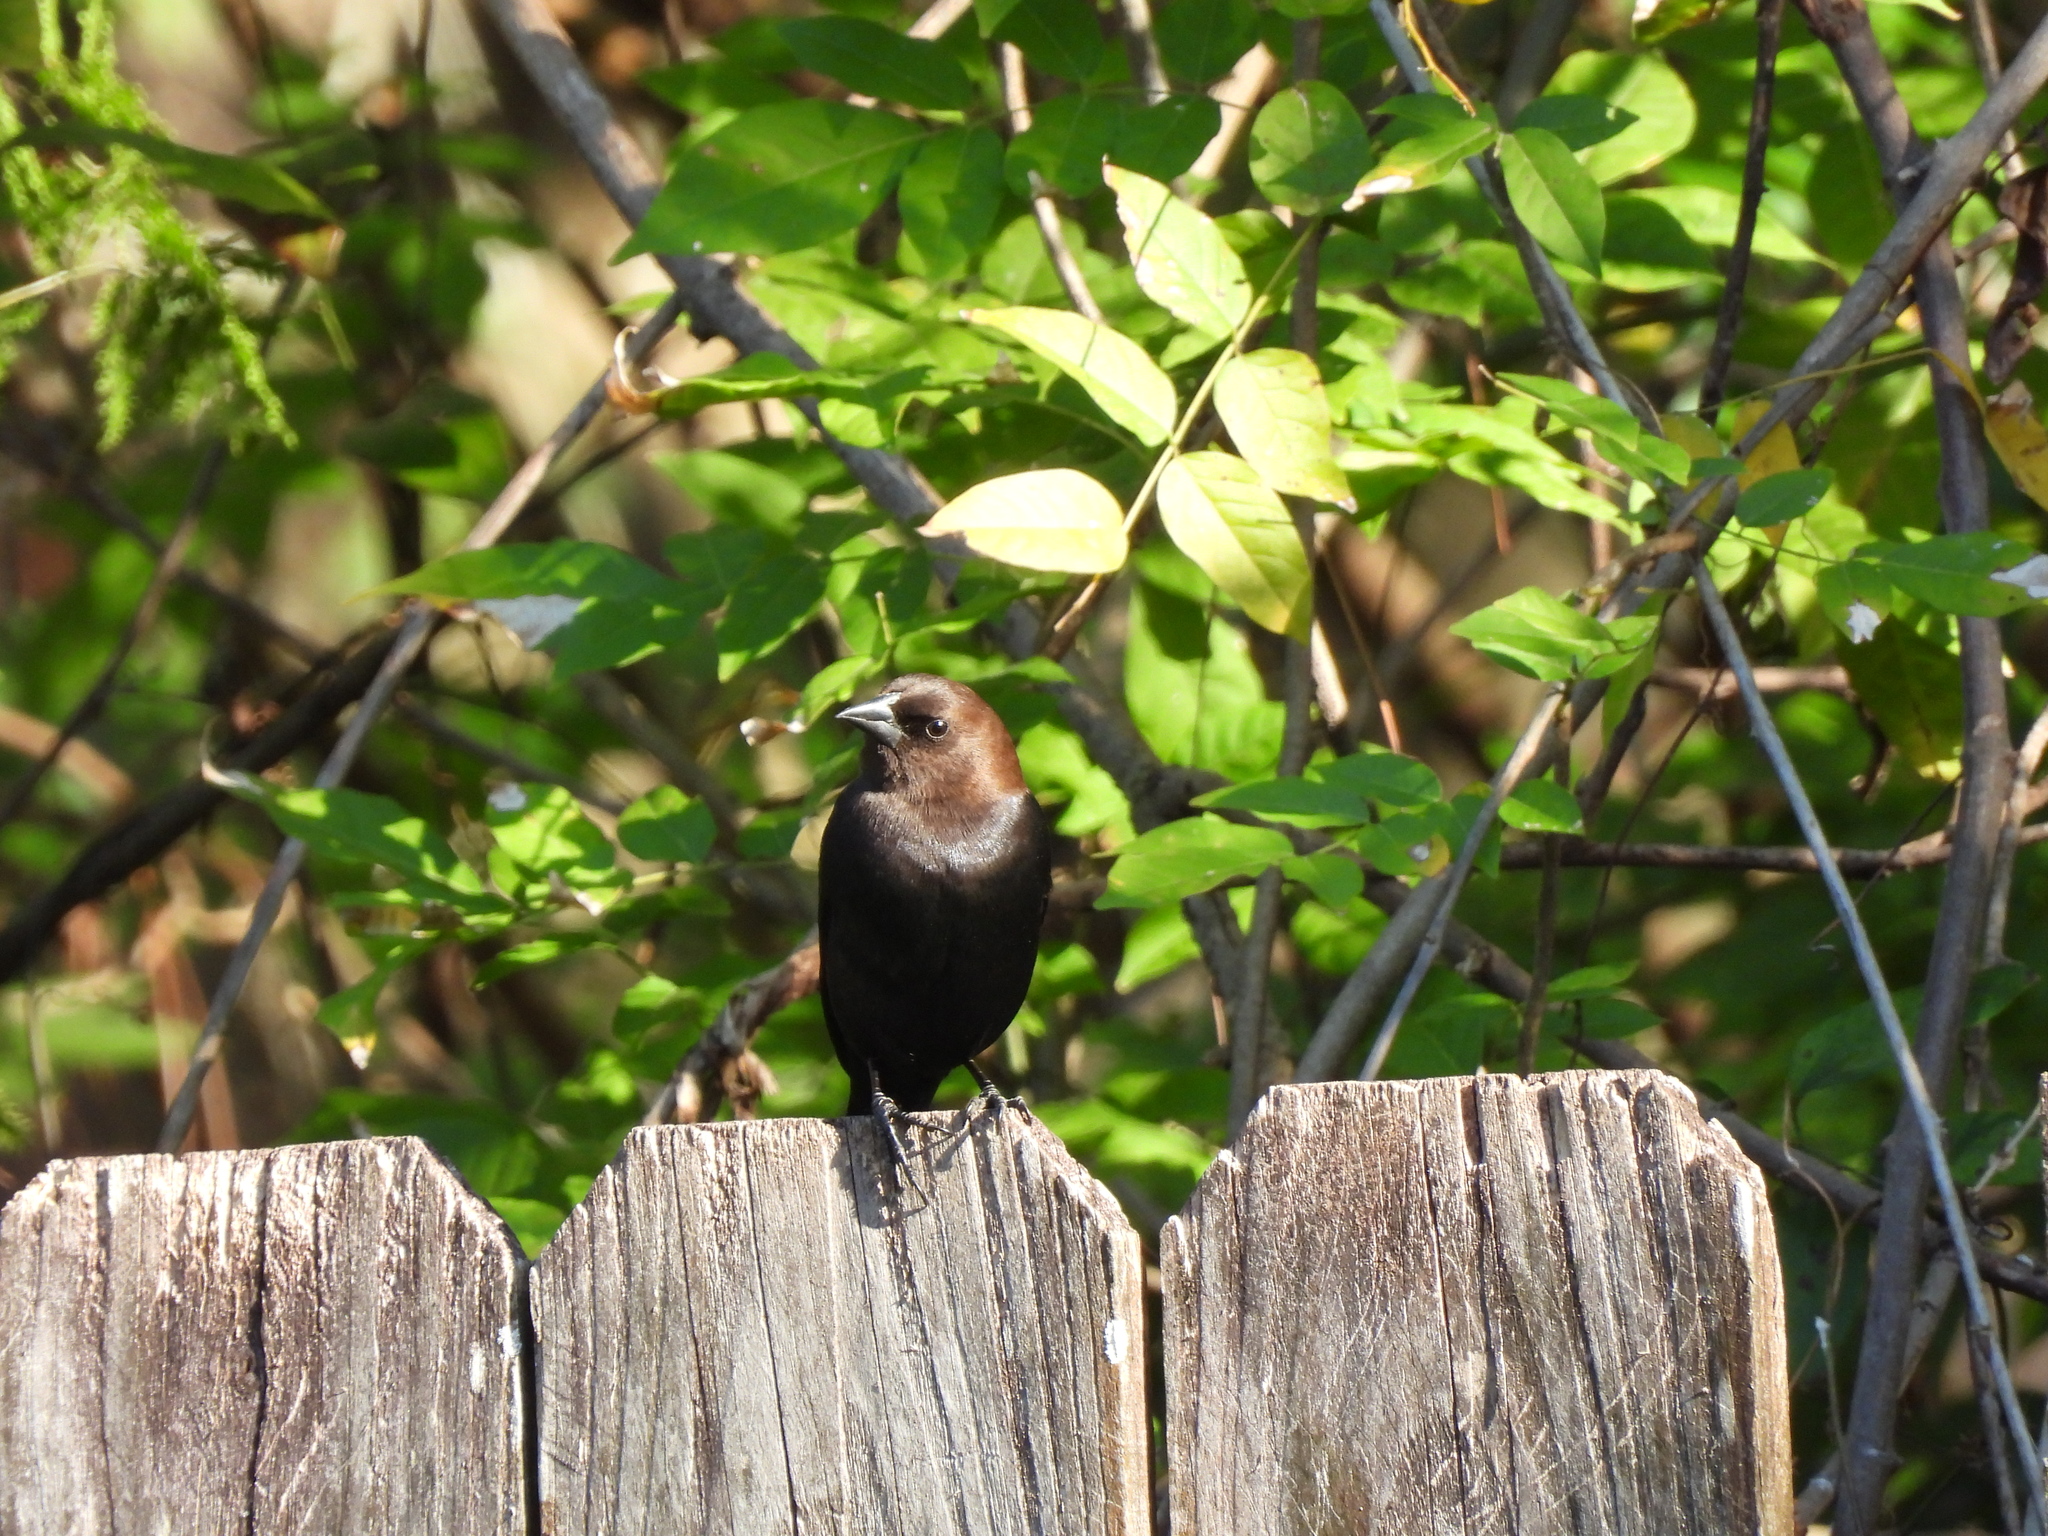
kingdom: Animalia
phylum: Chordata
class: Aves
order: Passeriformes
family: Icteridae
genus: Molothrus
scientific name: Molothrus ater
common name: Brown-headed cowbird
